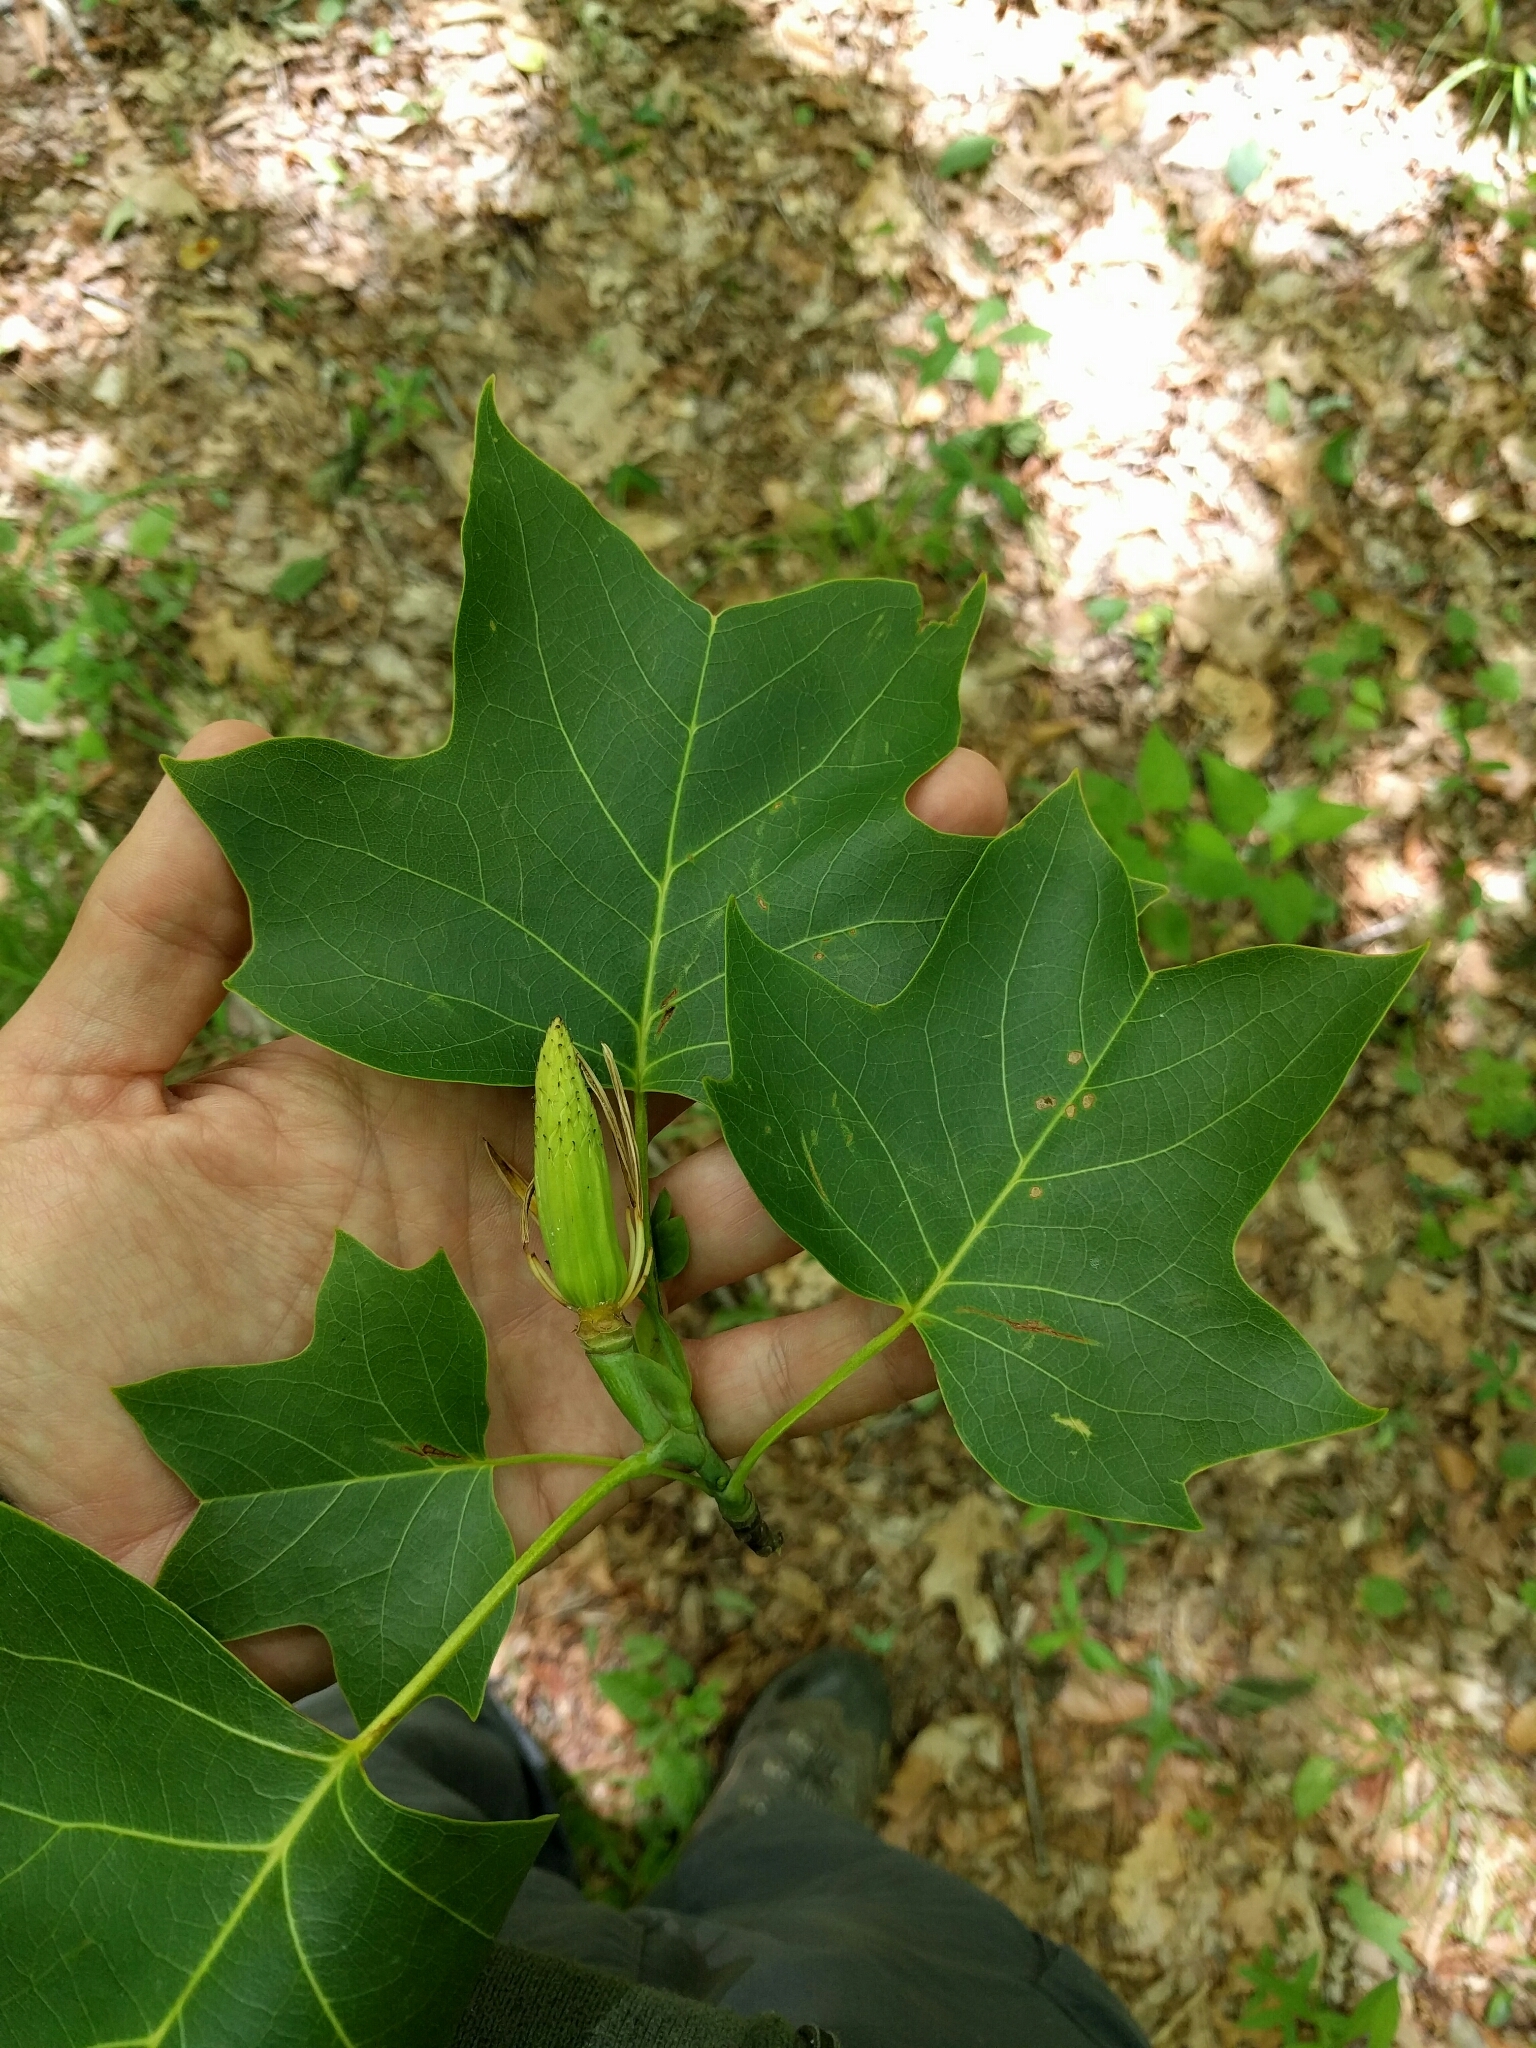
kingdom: Plantae
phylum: Tracheophyta
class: Magnoliopsida
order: Magnoliales
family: Magnoliaceae
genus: Liriodendron
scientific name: Liriodendron tulipifera
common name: Tulip tree
